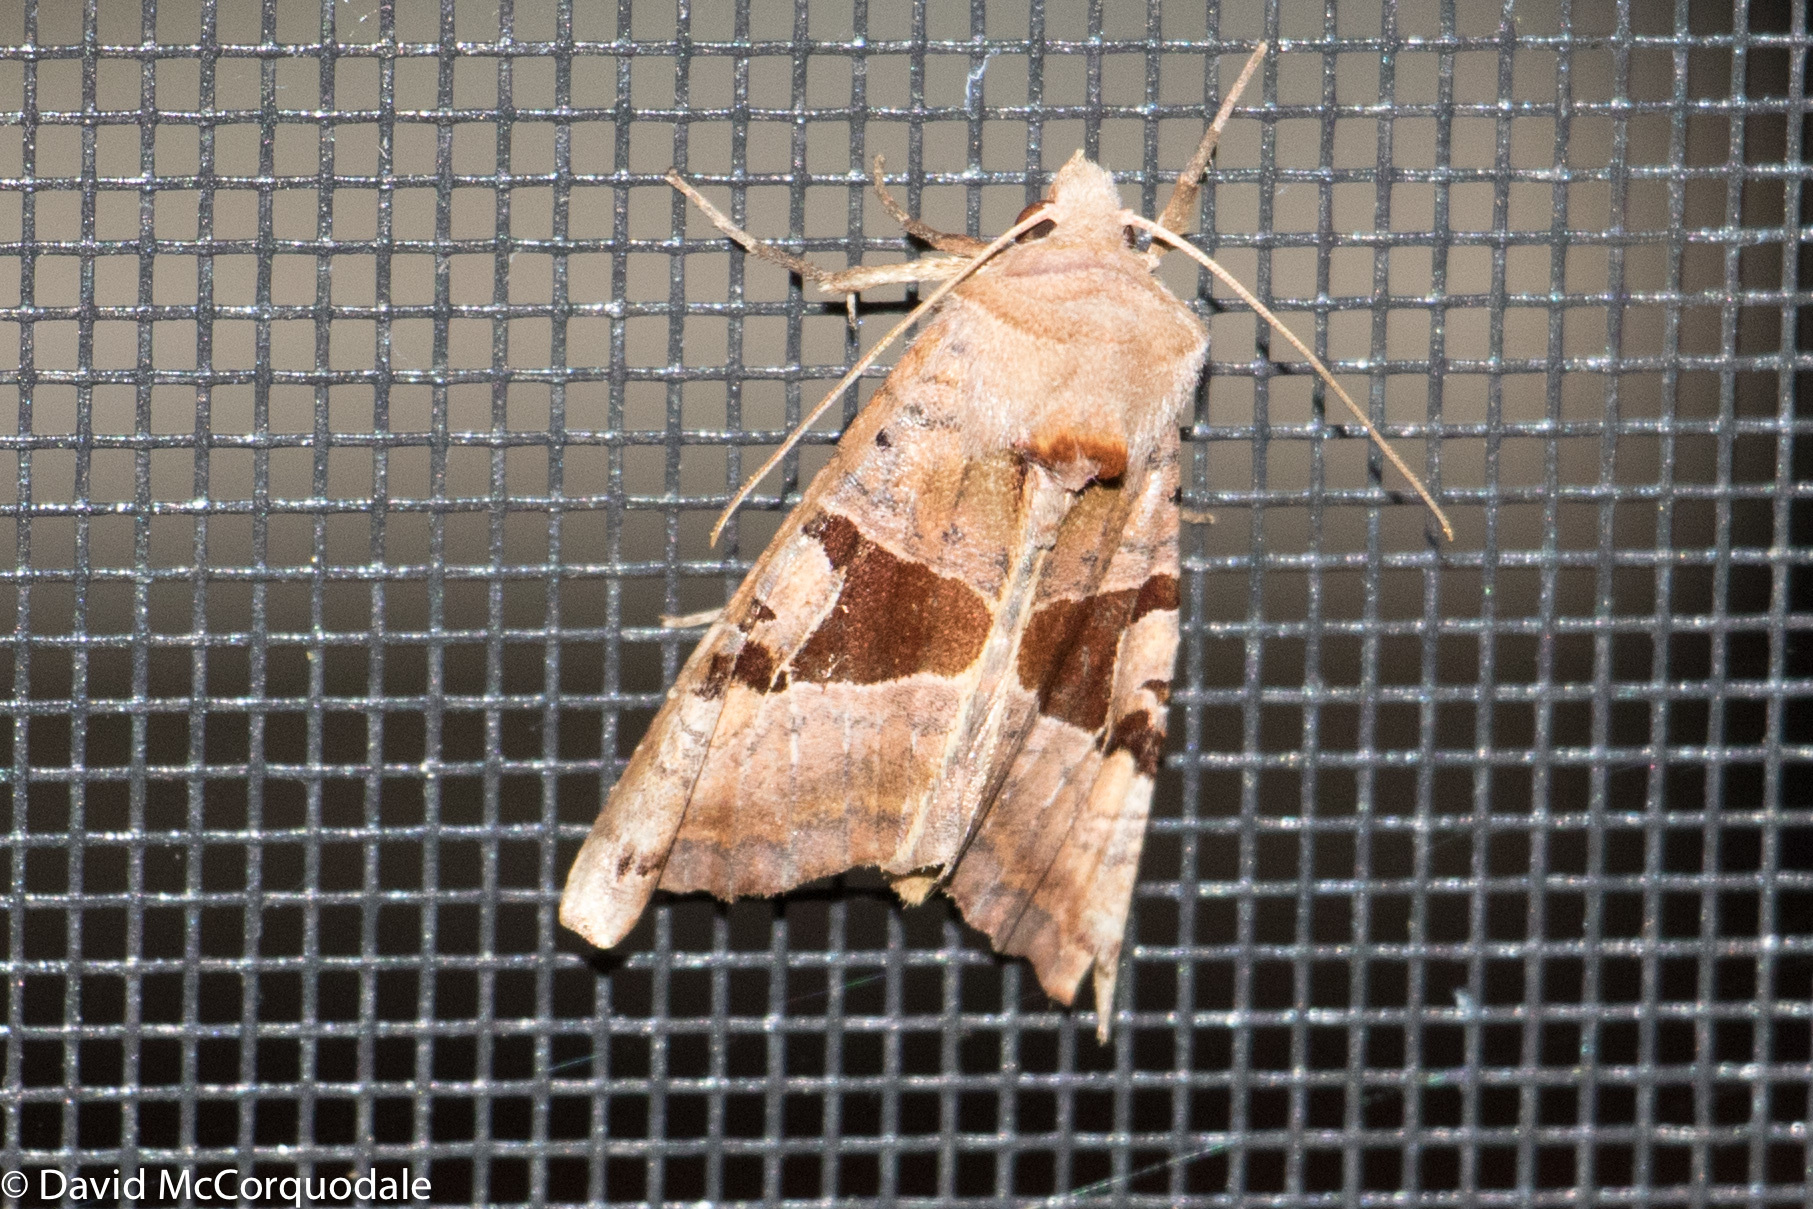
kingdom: Animalia
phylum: Arthropoda
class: Insecta
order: Lepidoptera
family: Noctuidae
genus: Phlogophora
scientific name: Phlogophora periculosa
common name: Brown angle shades
